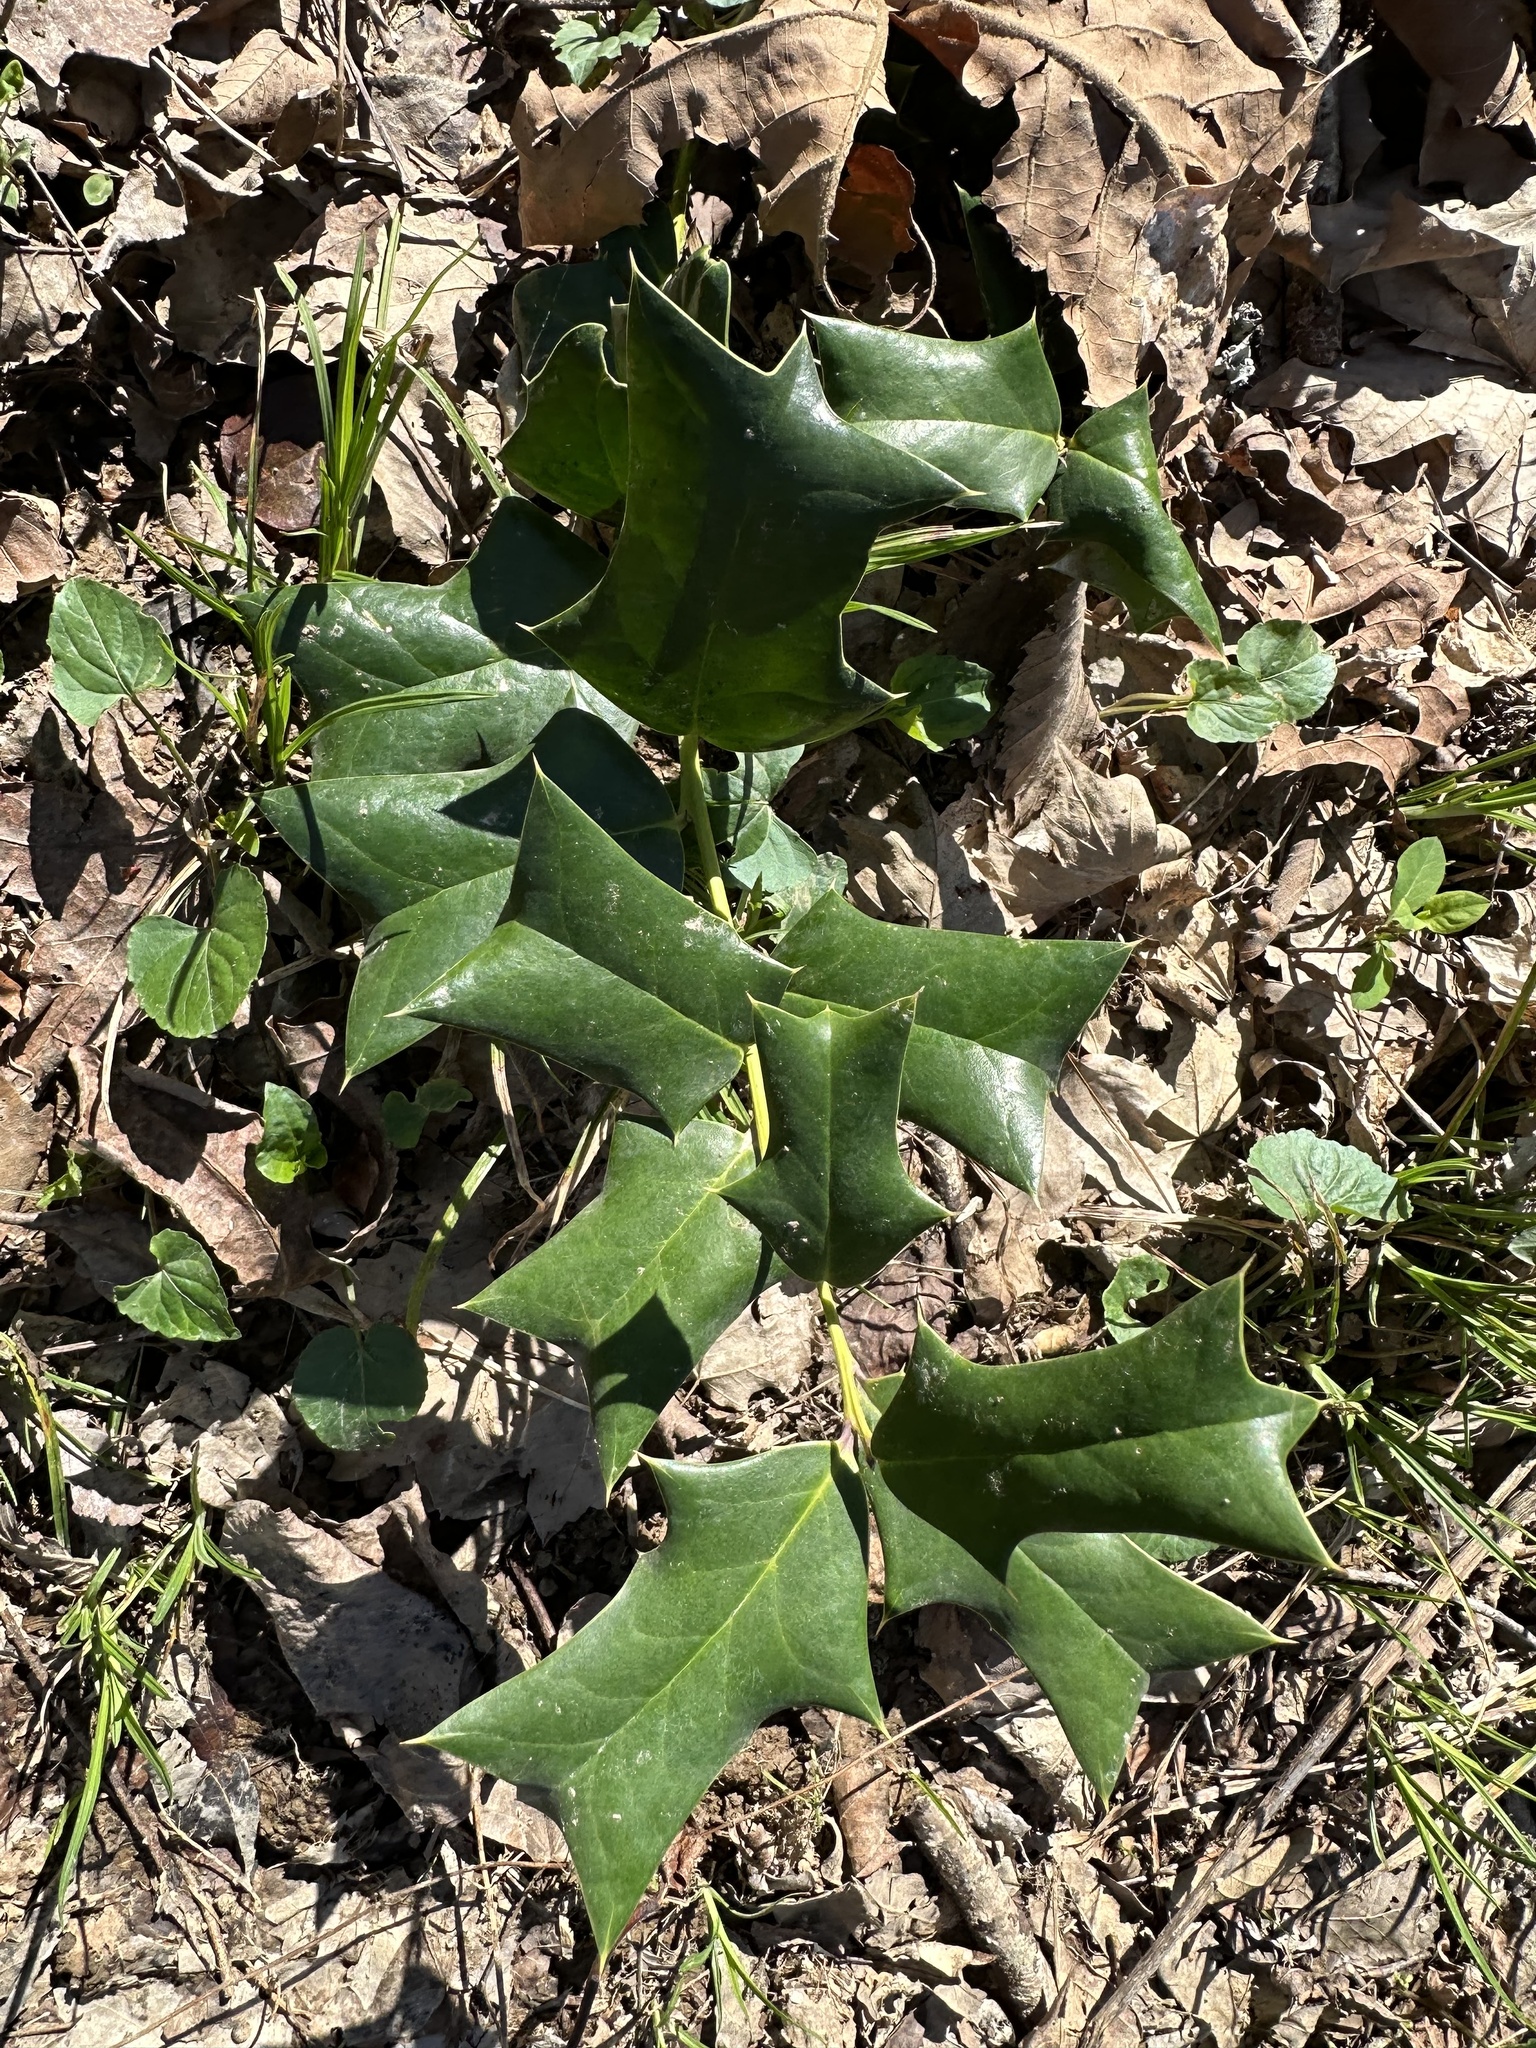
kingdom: Plantae
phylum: Tracheophyta
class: Magnoliopsida
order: Aquifoliales
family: Aquifoliaceae
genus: Ilex
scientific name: Ilex cornuta
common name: Chinese holly
